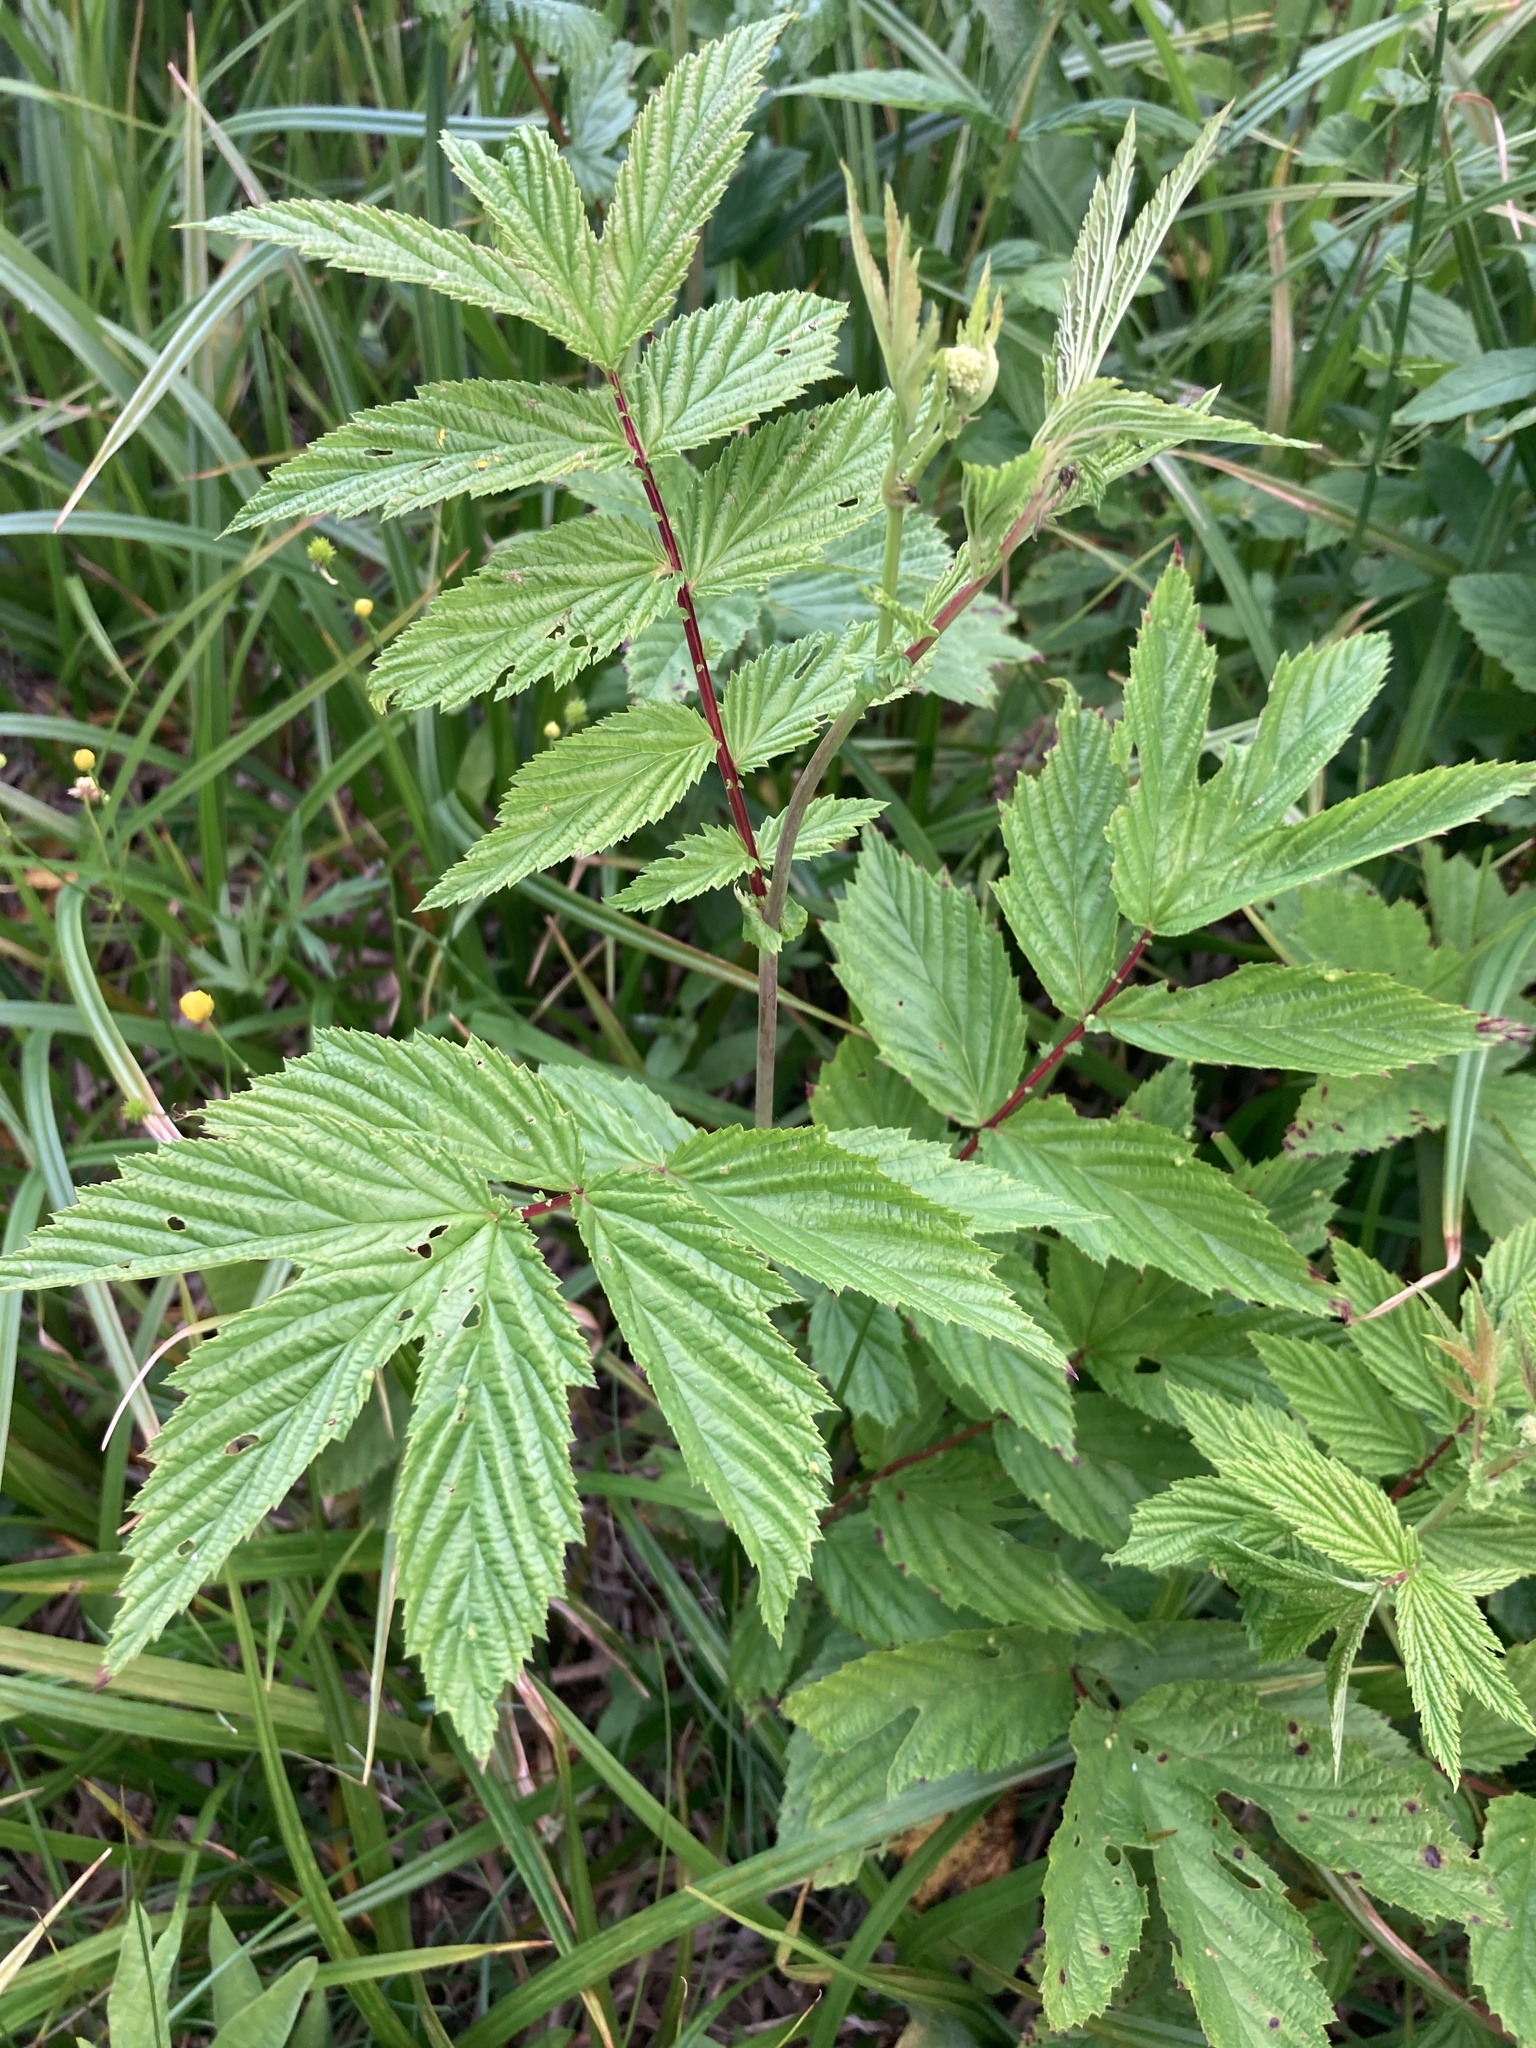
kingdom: Plantae
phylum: Tracheophyta
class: Magnoliopsida
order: Rosales
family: Rosaceae
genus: Filipendula
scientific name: Filipendula ulmaria
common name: Meadowsweet
